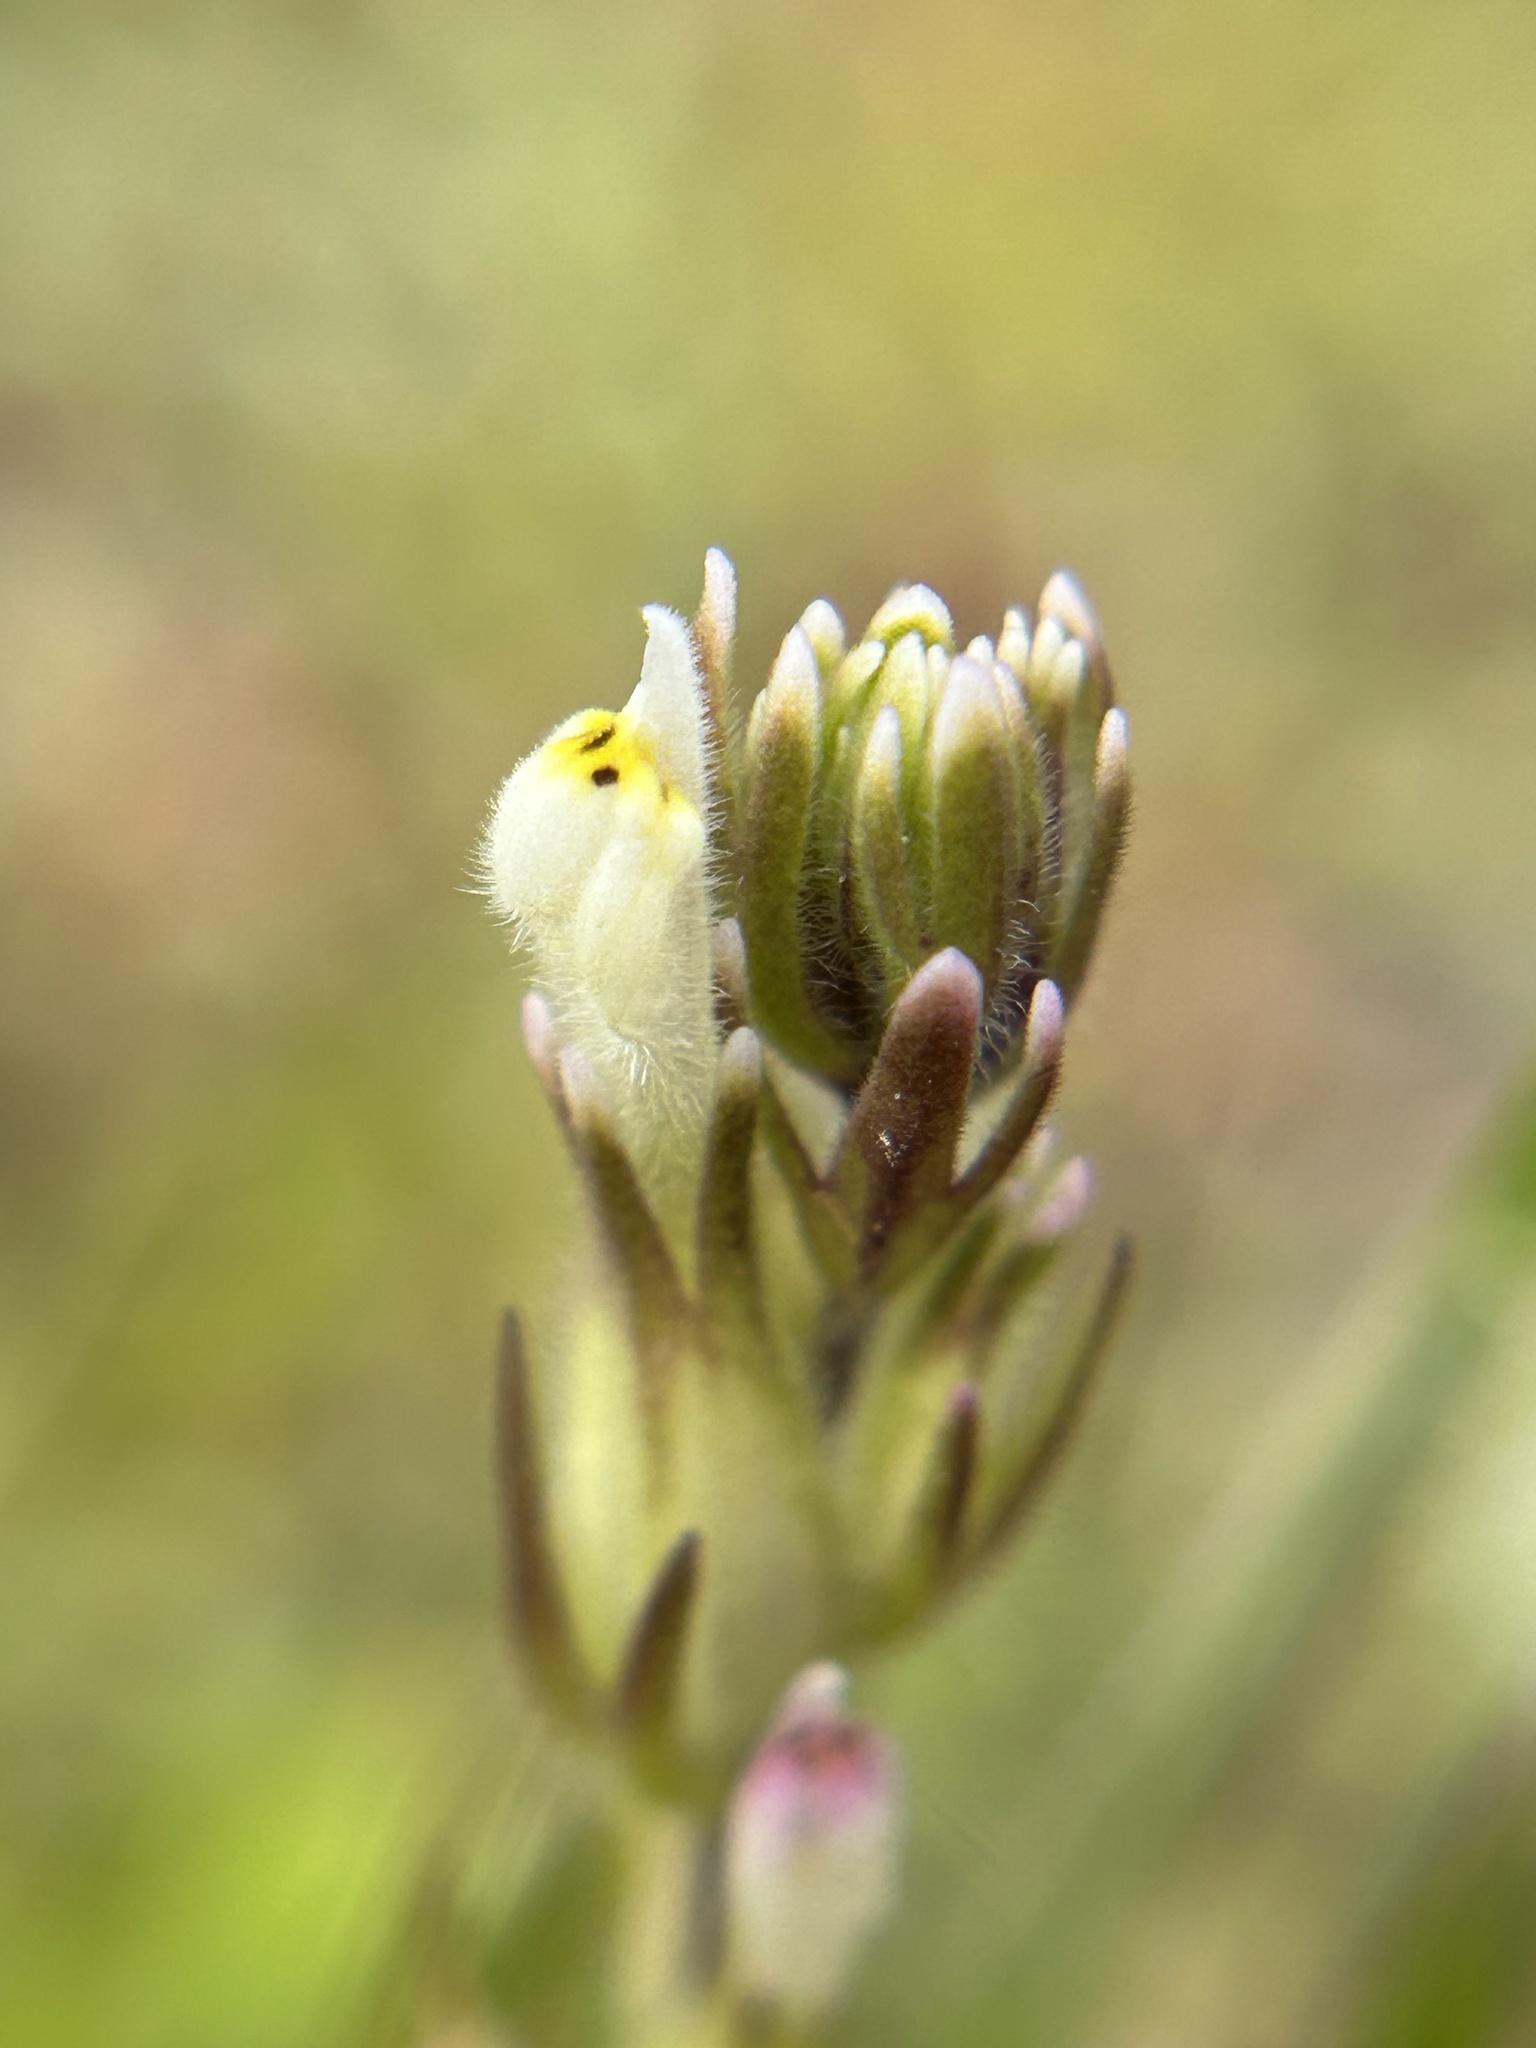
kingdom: Plantae
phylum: Tracheophyta
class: Magnoliopsida
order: Lamiales
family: Orobanchaceae
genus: Castilleja
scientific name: Castilleja attenuata
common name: Valley tassels
